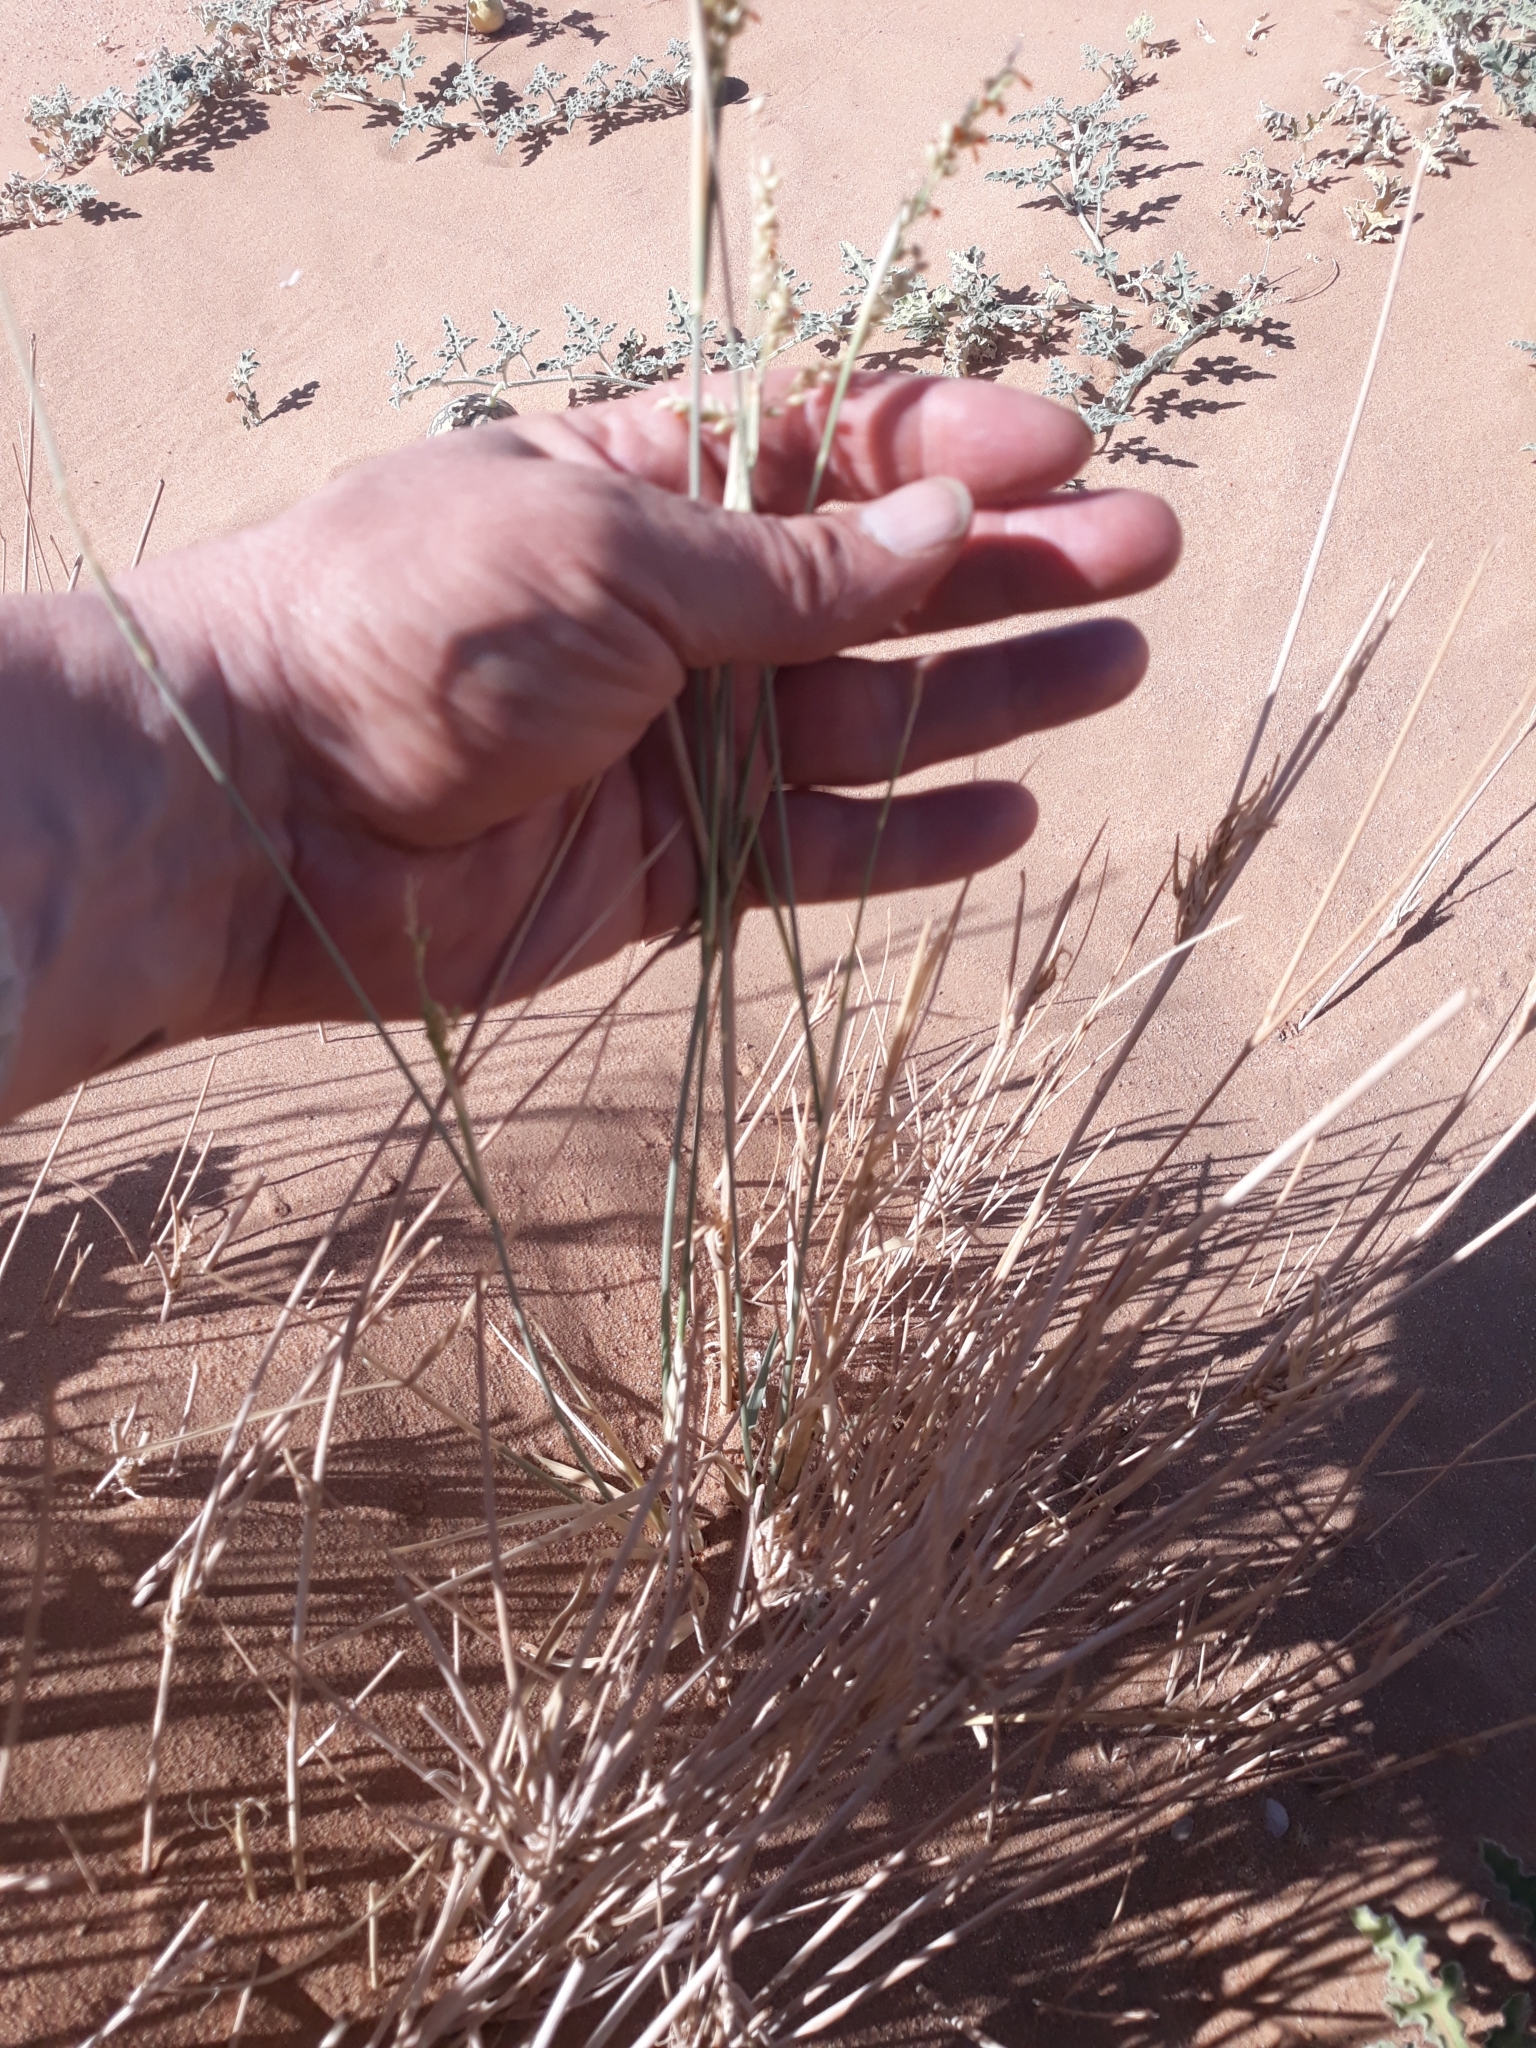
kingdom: Plantae
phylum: Tracheophyta
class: Liliopsida
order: Poales
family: Poaceae
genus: Panicum
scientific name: Panicum turgidum
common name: Desert grass
